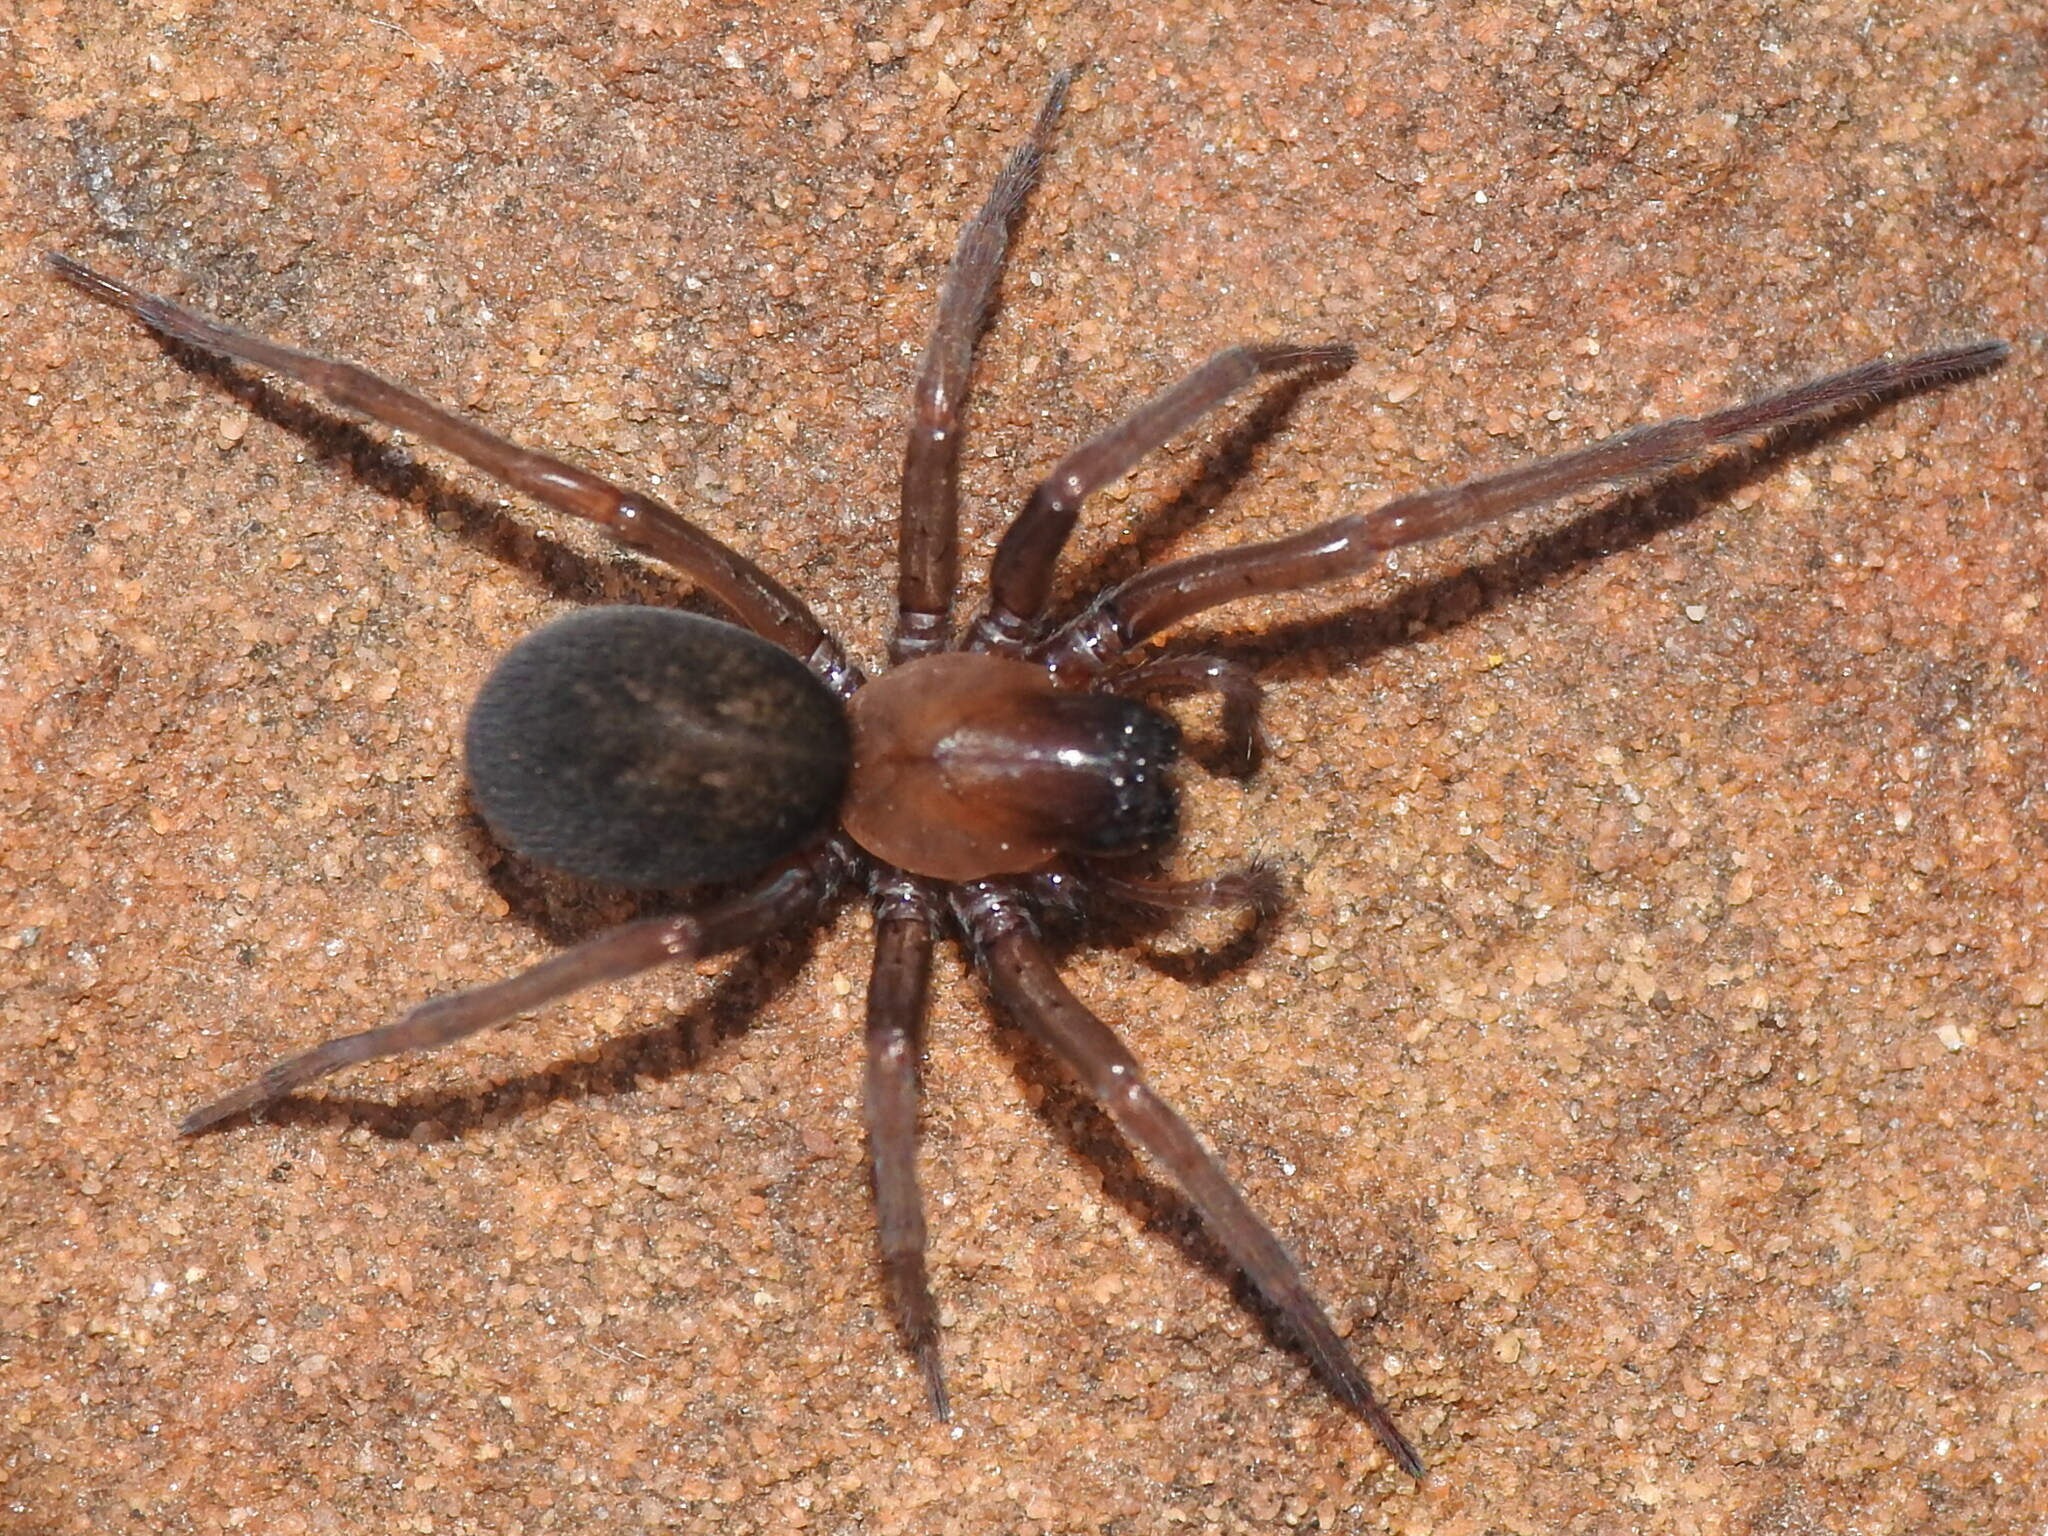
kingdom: Animalia
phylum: Arthropoda
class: Arachnida
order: Araneae
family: Desidae
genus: Metaltella
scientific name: Metaltella simoni
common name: Cribellate spider
